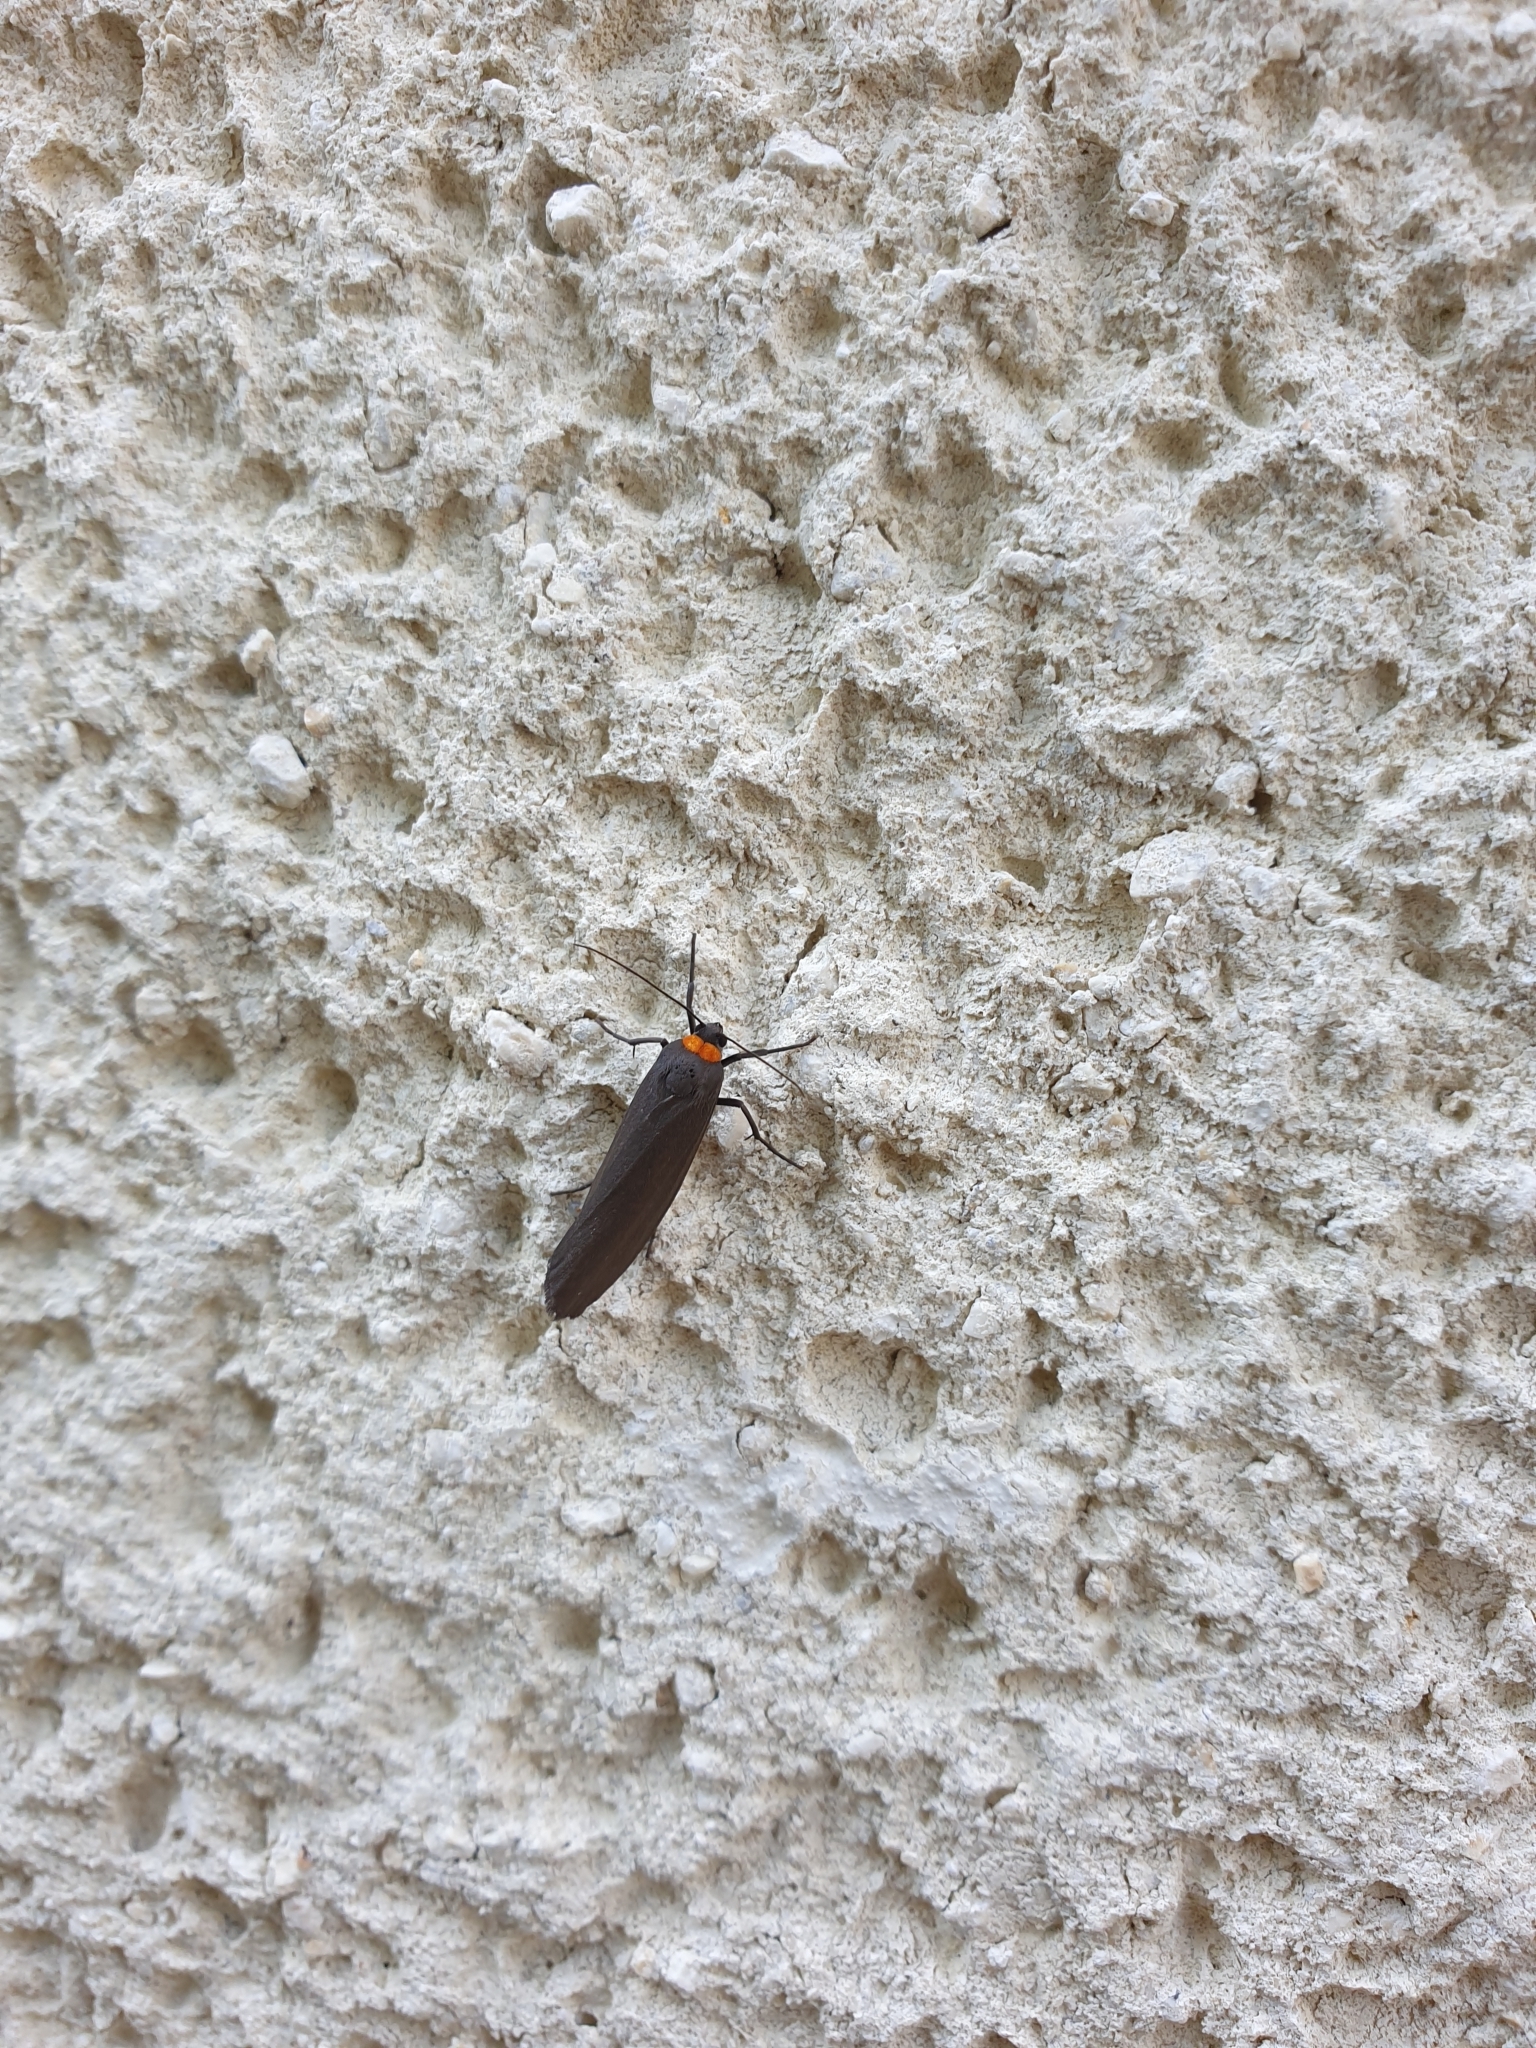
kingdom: Animalia
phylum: Arthropoda
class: Insecta
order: Lepidoptera
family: Erebidae
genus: Atolmis
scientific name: Atolmis rubricollis
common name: Red-necked footman
